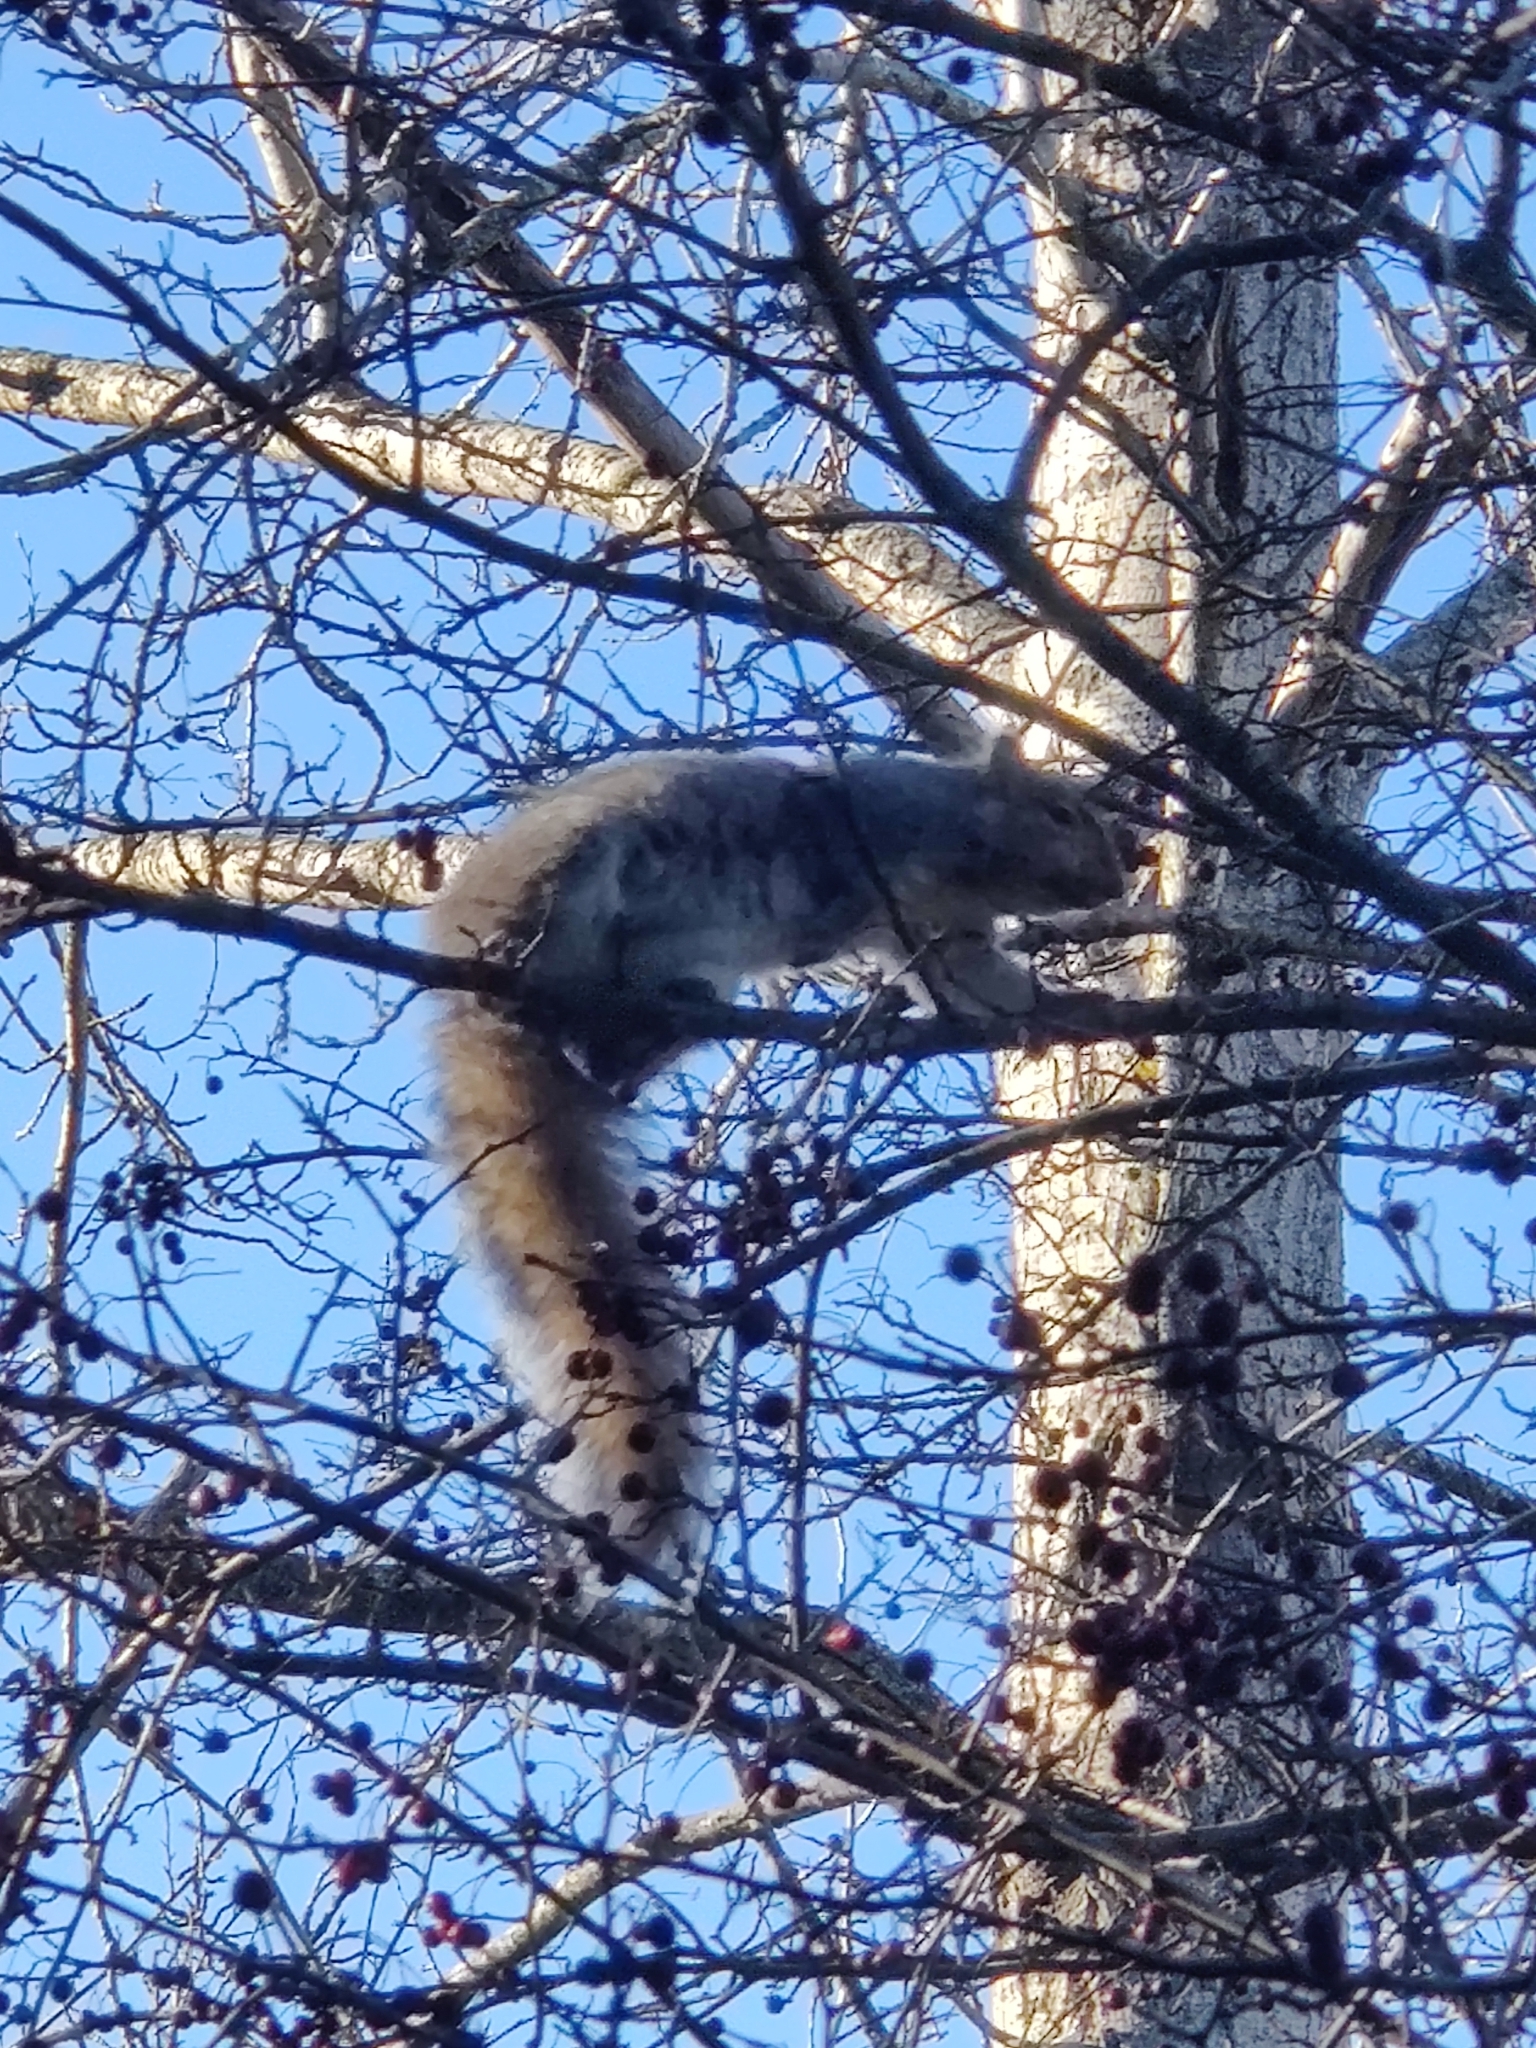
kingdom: Animalia
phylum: Chordata
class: Mammalia
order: Rodentia
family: Sciuridae
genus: Sciurus
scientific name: Sciurus carolinensis
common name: Eastern gray squirrel
